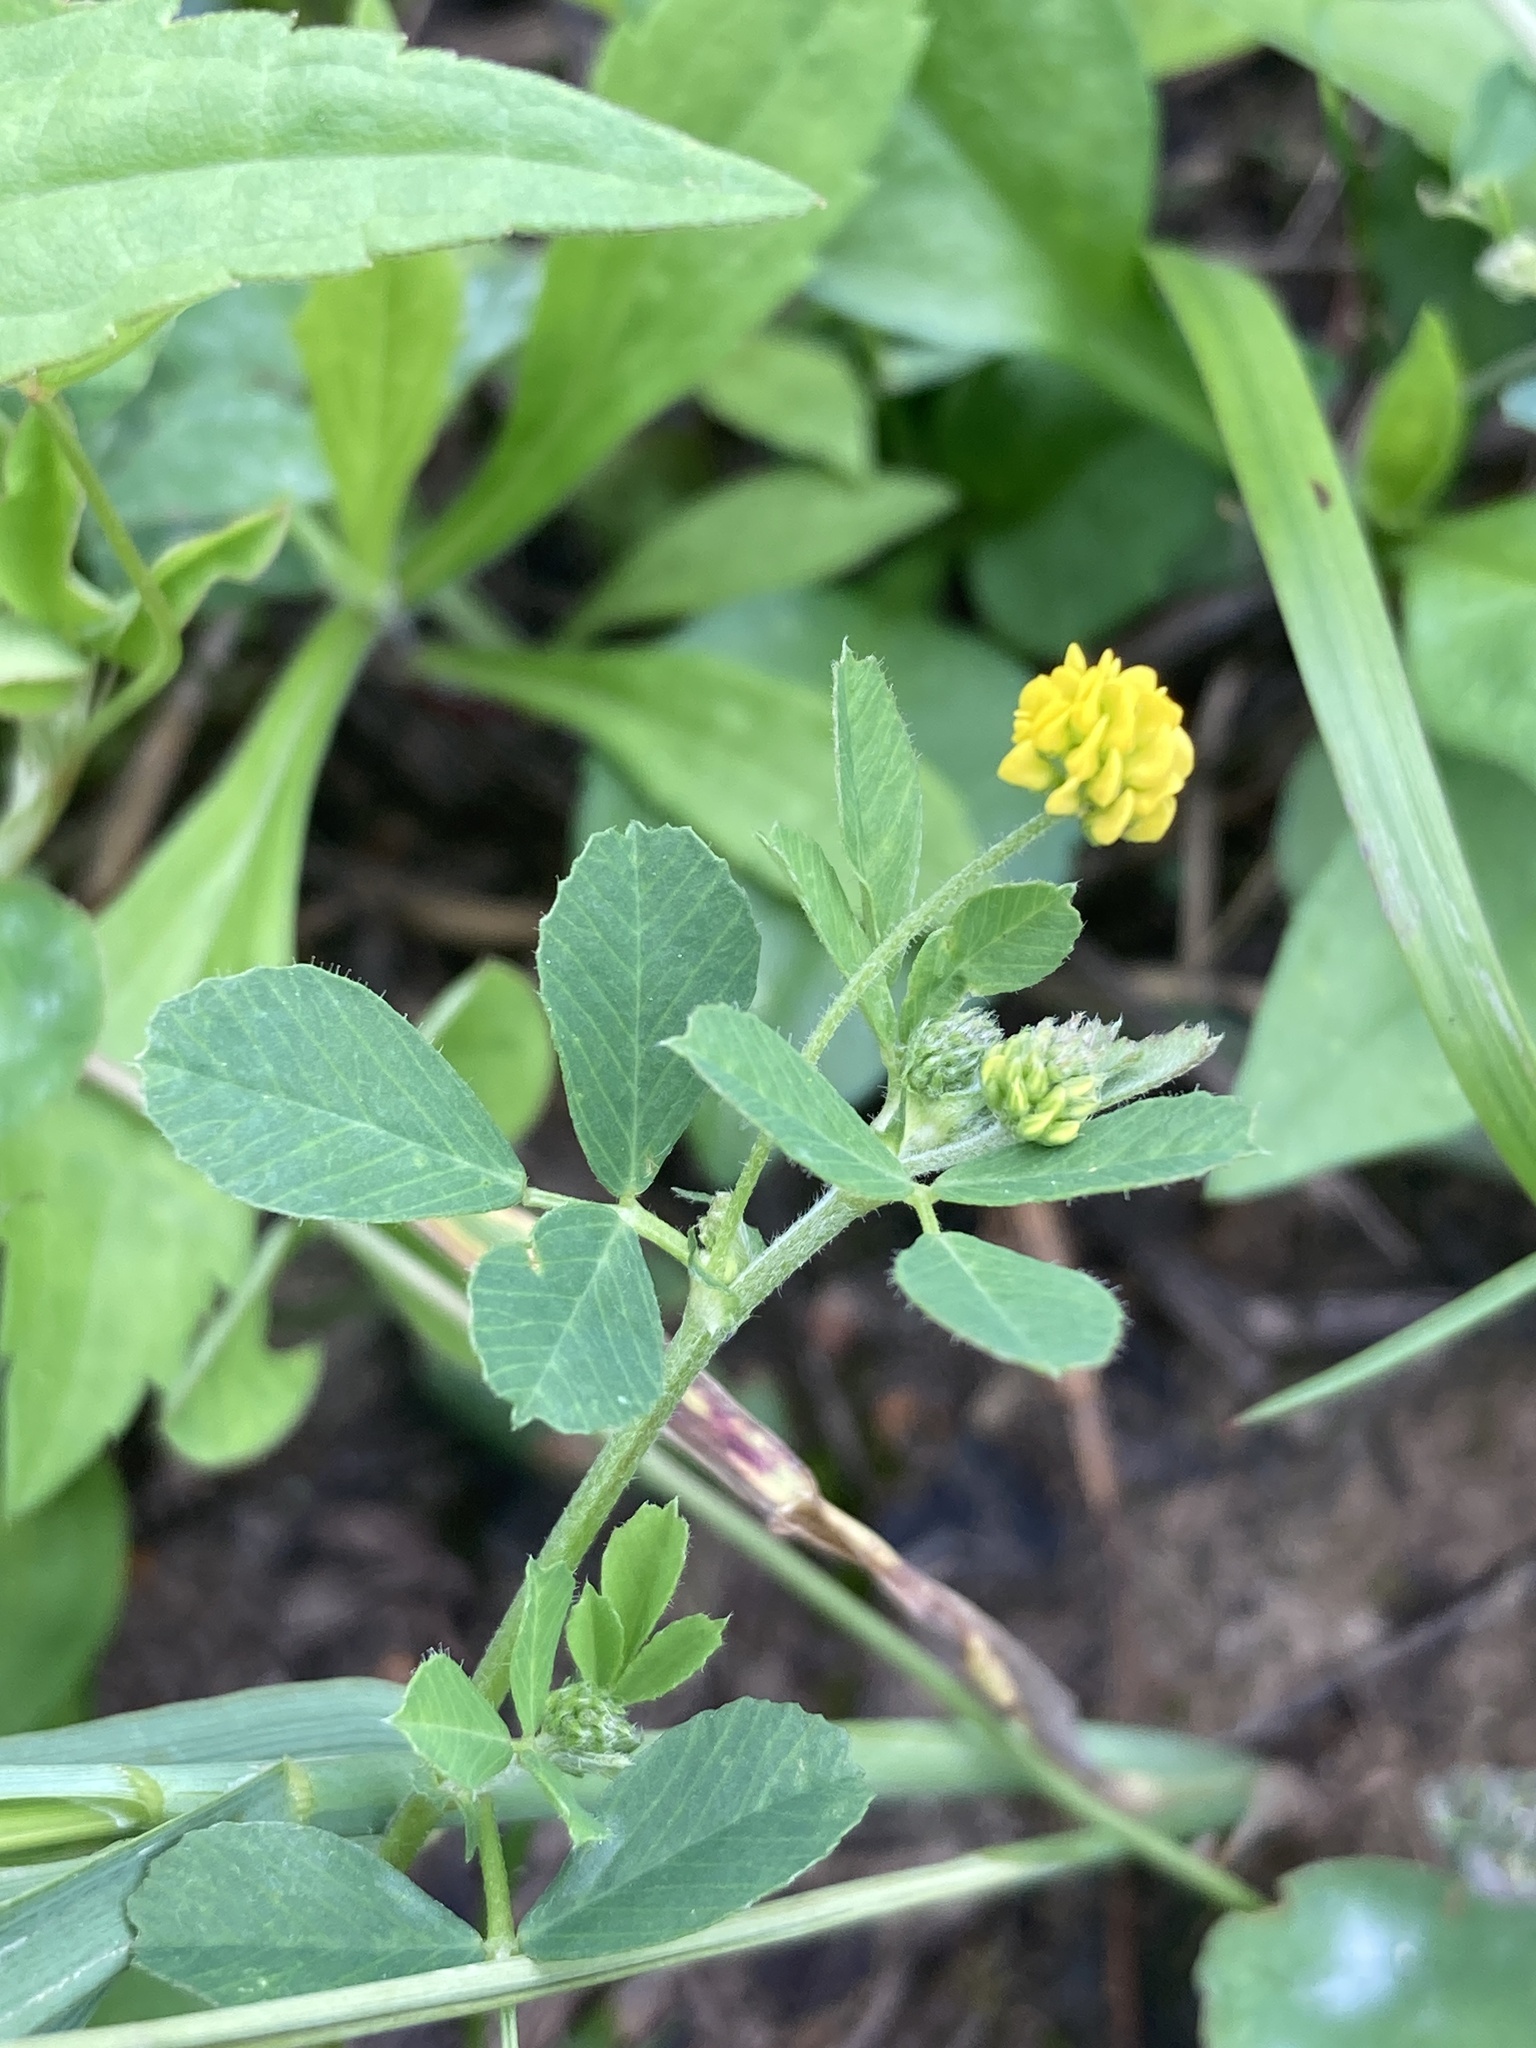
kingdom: Plantae
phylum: Tracheophyta
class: Magnoliopsida
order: Fabales
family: Fabaceae
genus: Medicago
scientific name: Medicago lupulina
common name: Black medick
